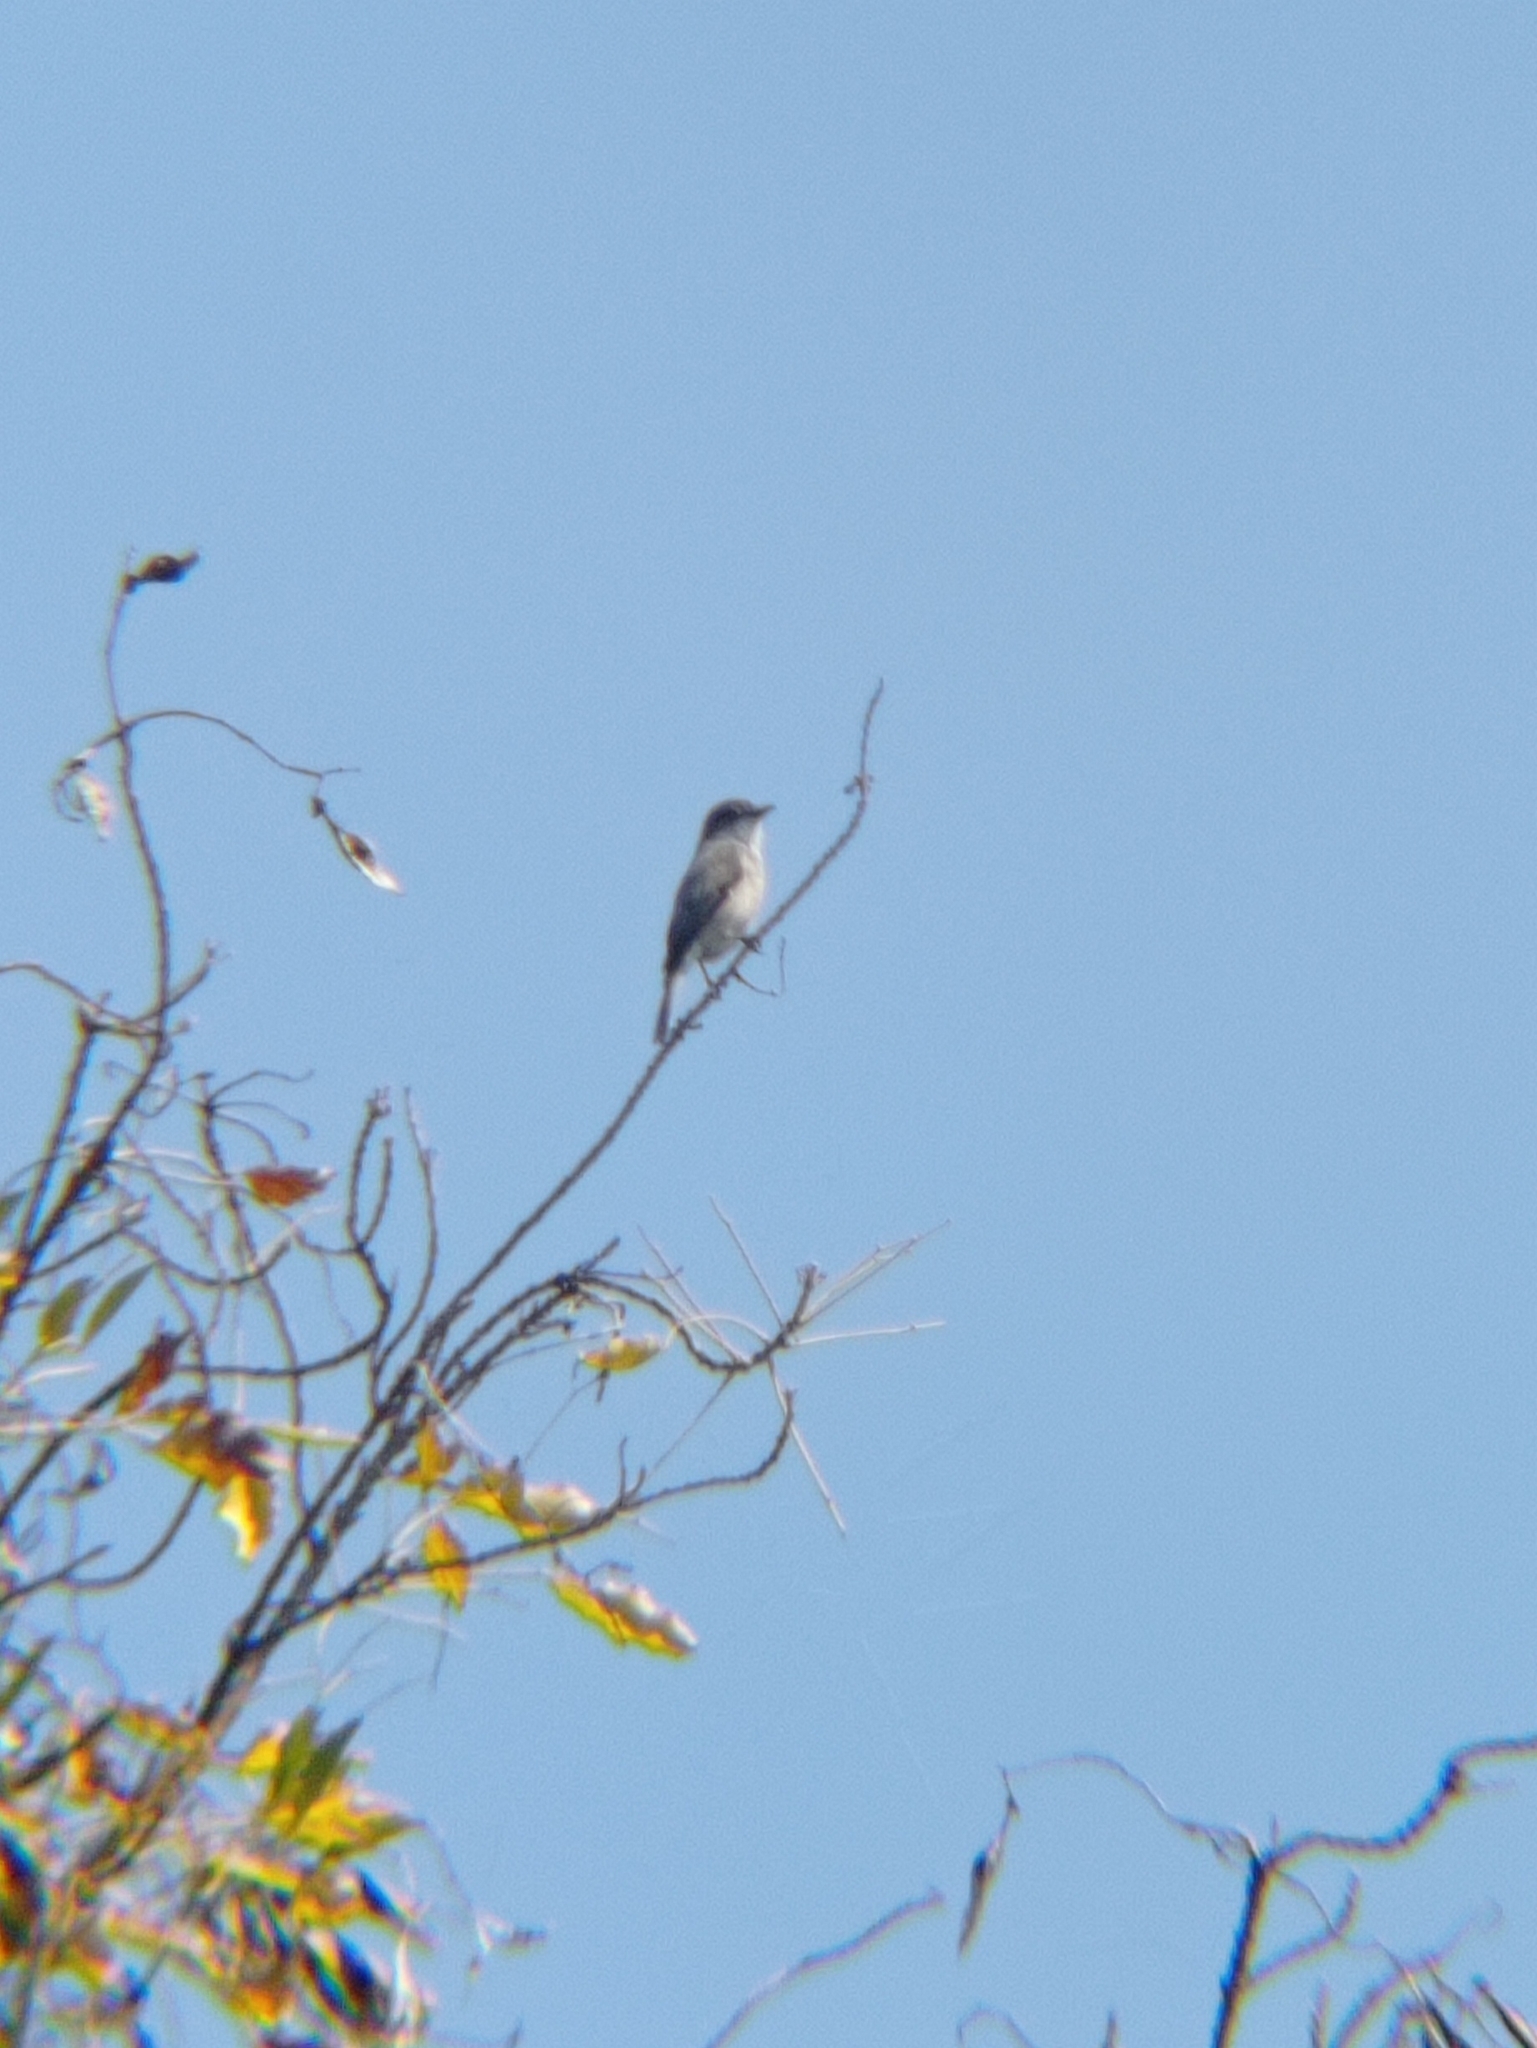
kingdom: Animalia
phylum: Chordata
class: Aves
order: Passeriformes
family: Tyrannidae
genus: Xolmis
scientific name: Xolmis pyrope
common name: Fire-eyed diucon
